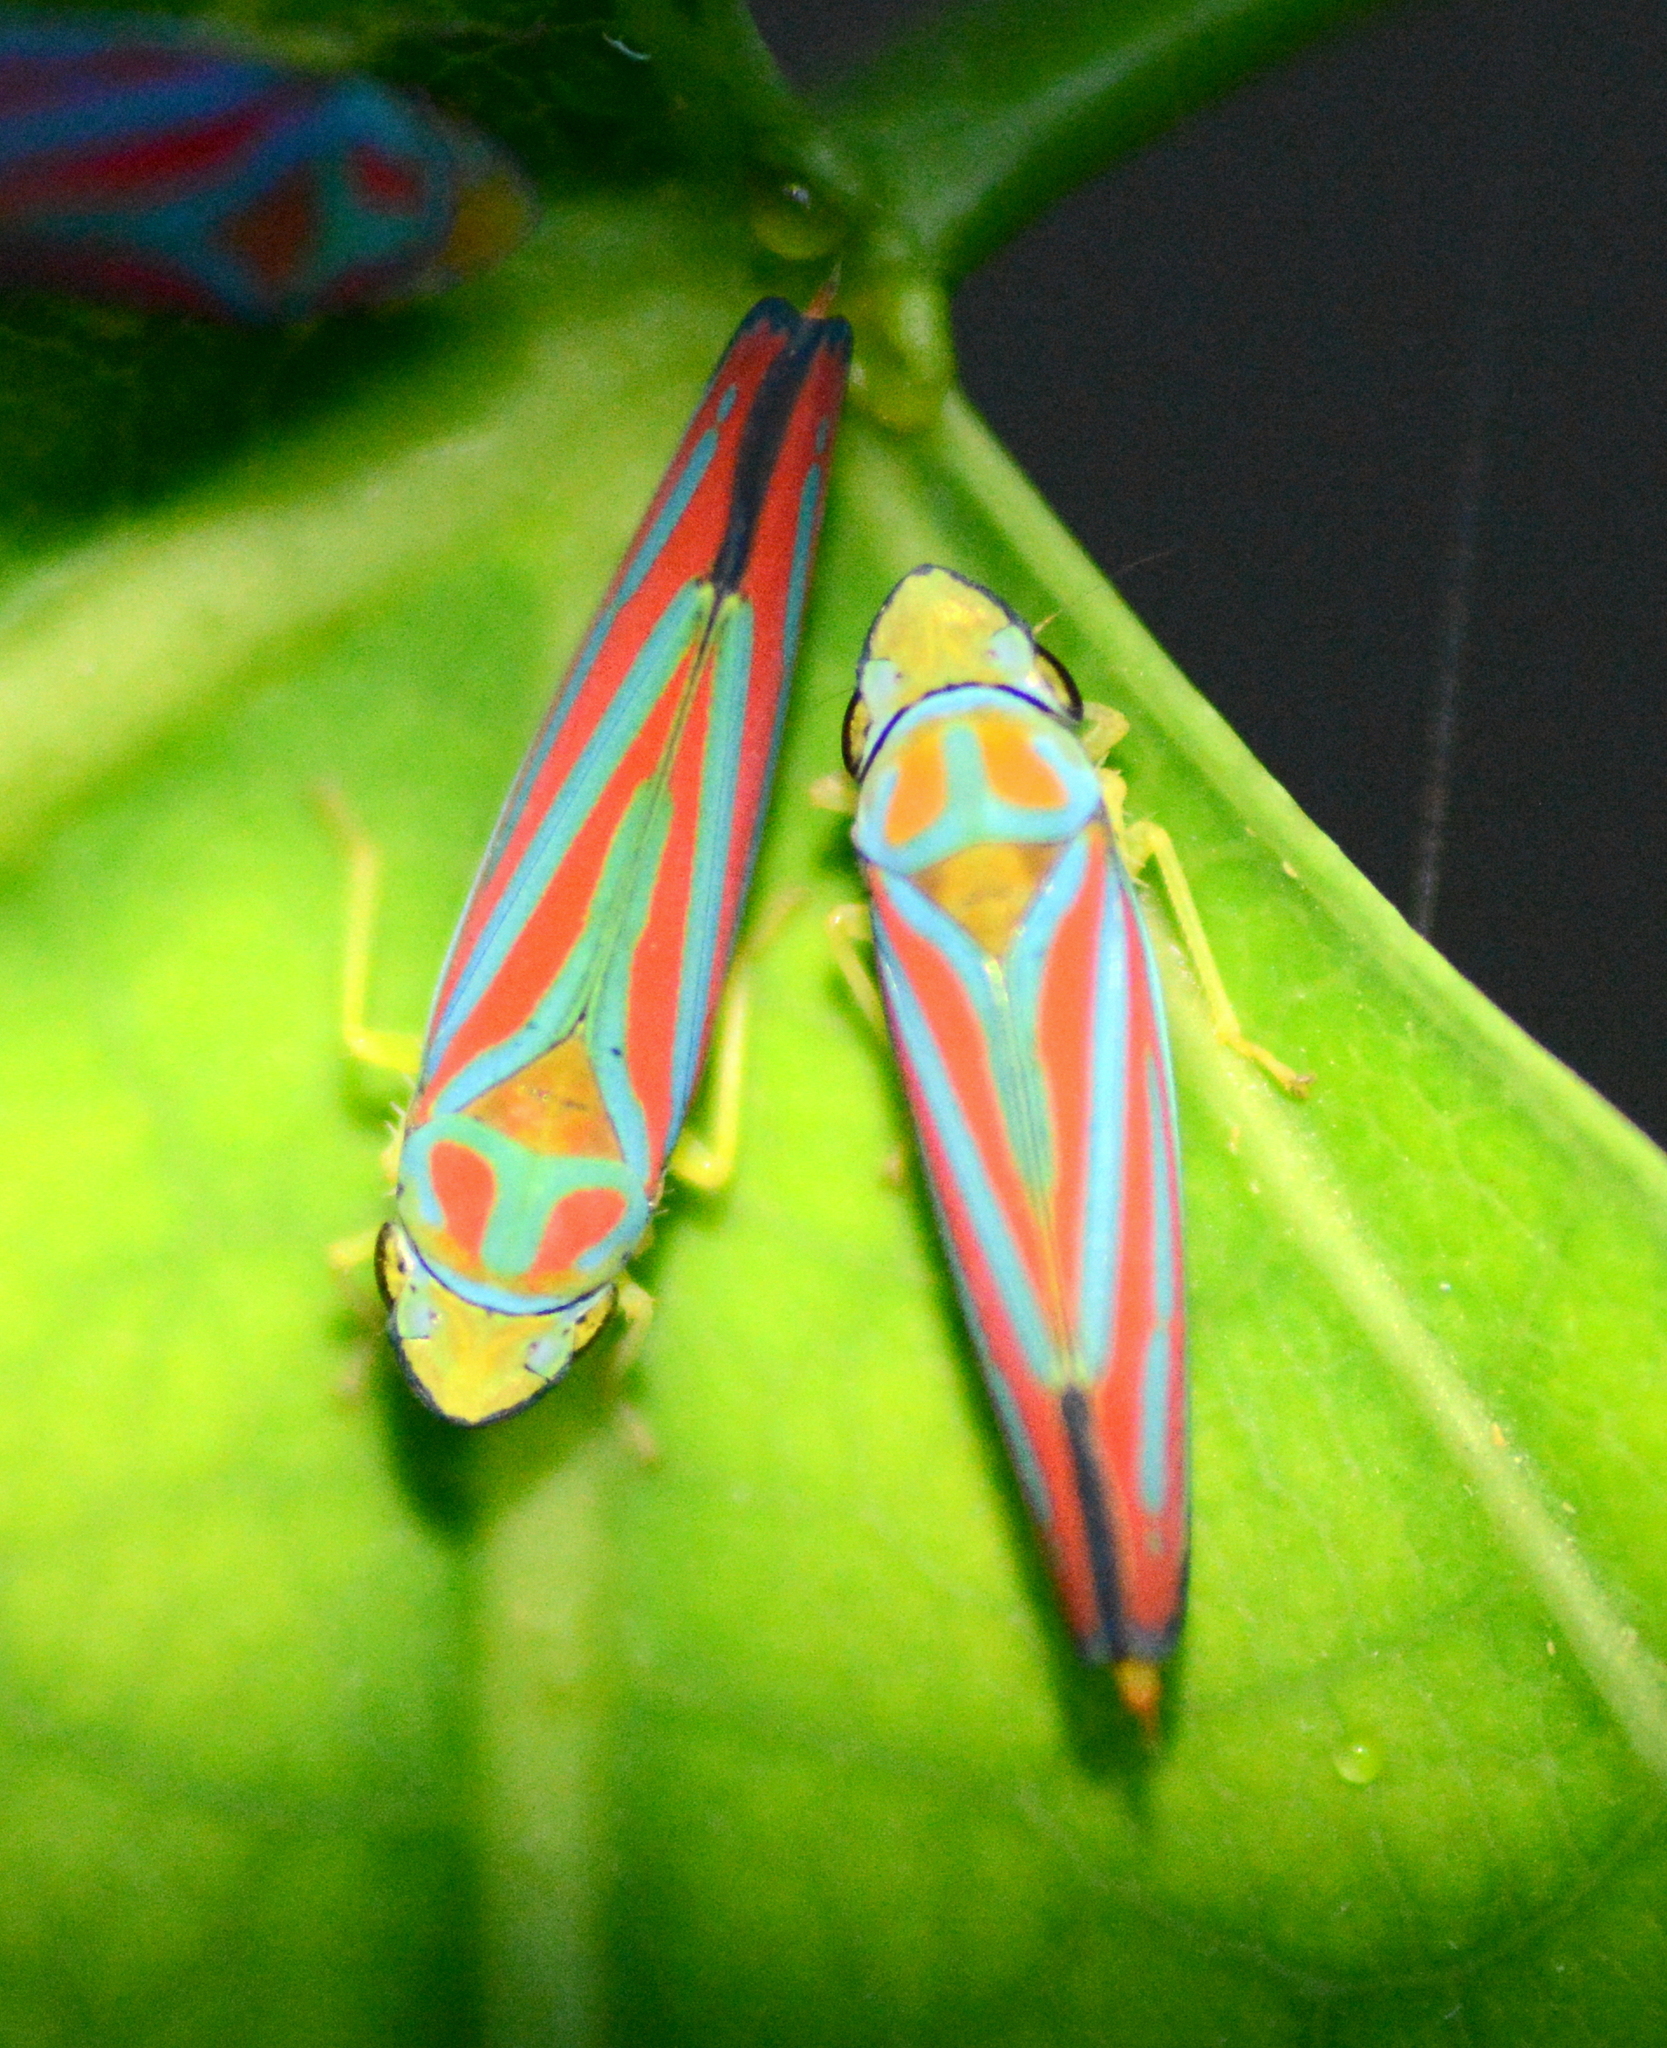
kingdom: Animalia
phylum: Arthropoda
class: Insecta
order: Hemiptera
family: Cicadellidae
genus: Graphocephala
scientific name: Graphocephala coccinea
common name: Candy-striped leafhopper
